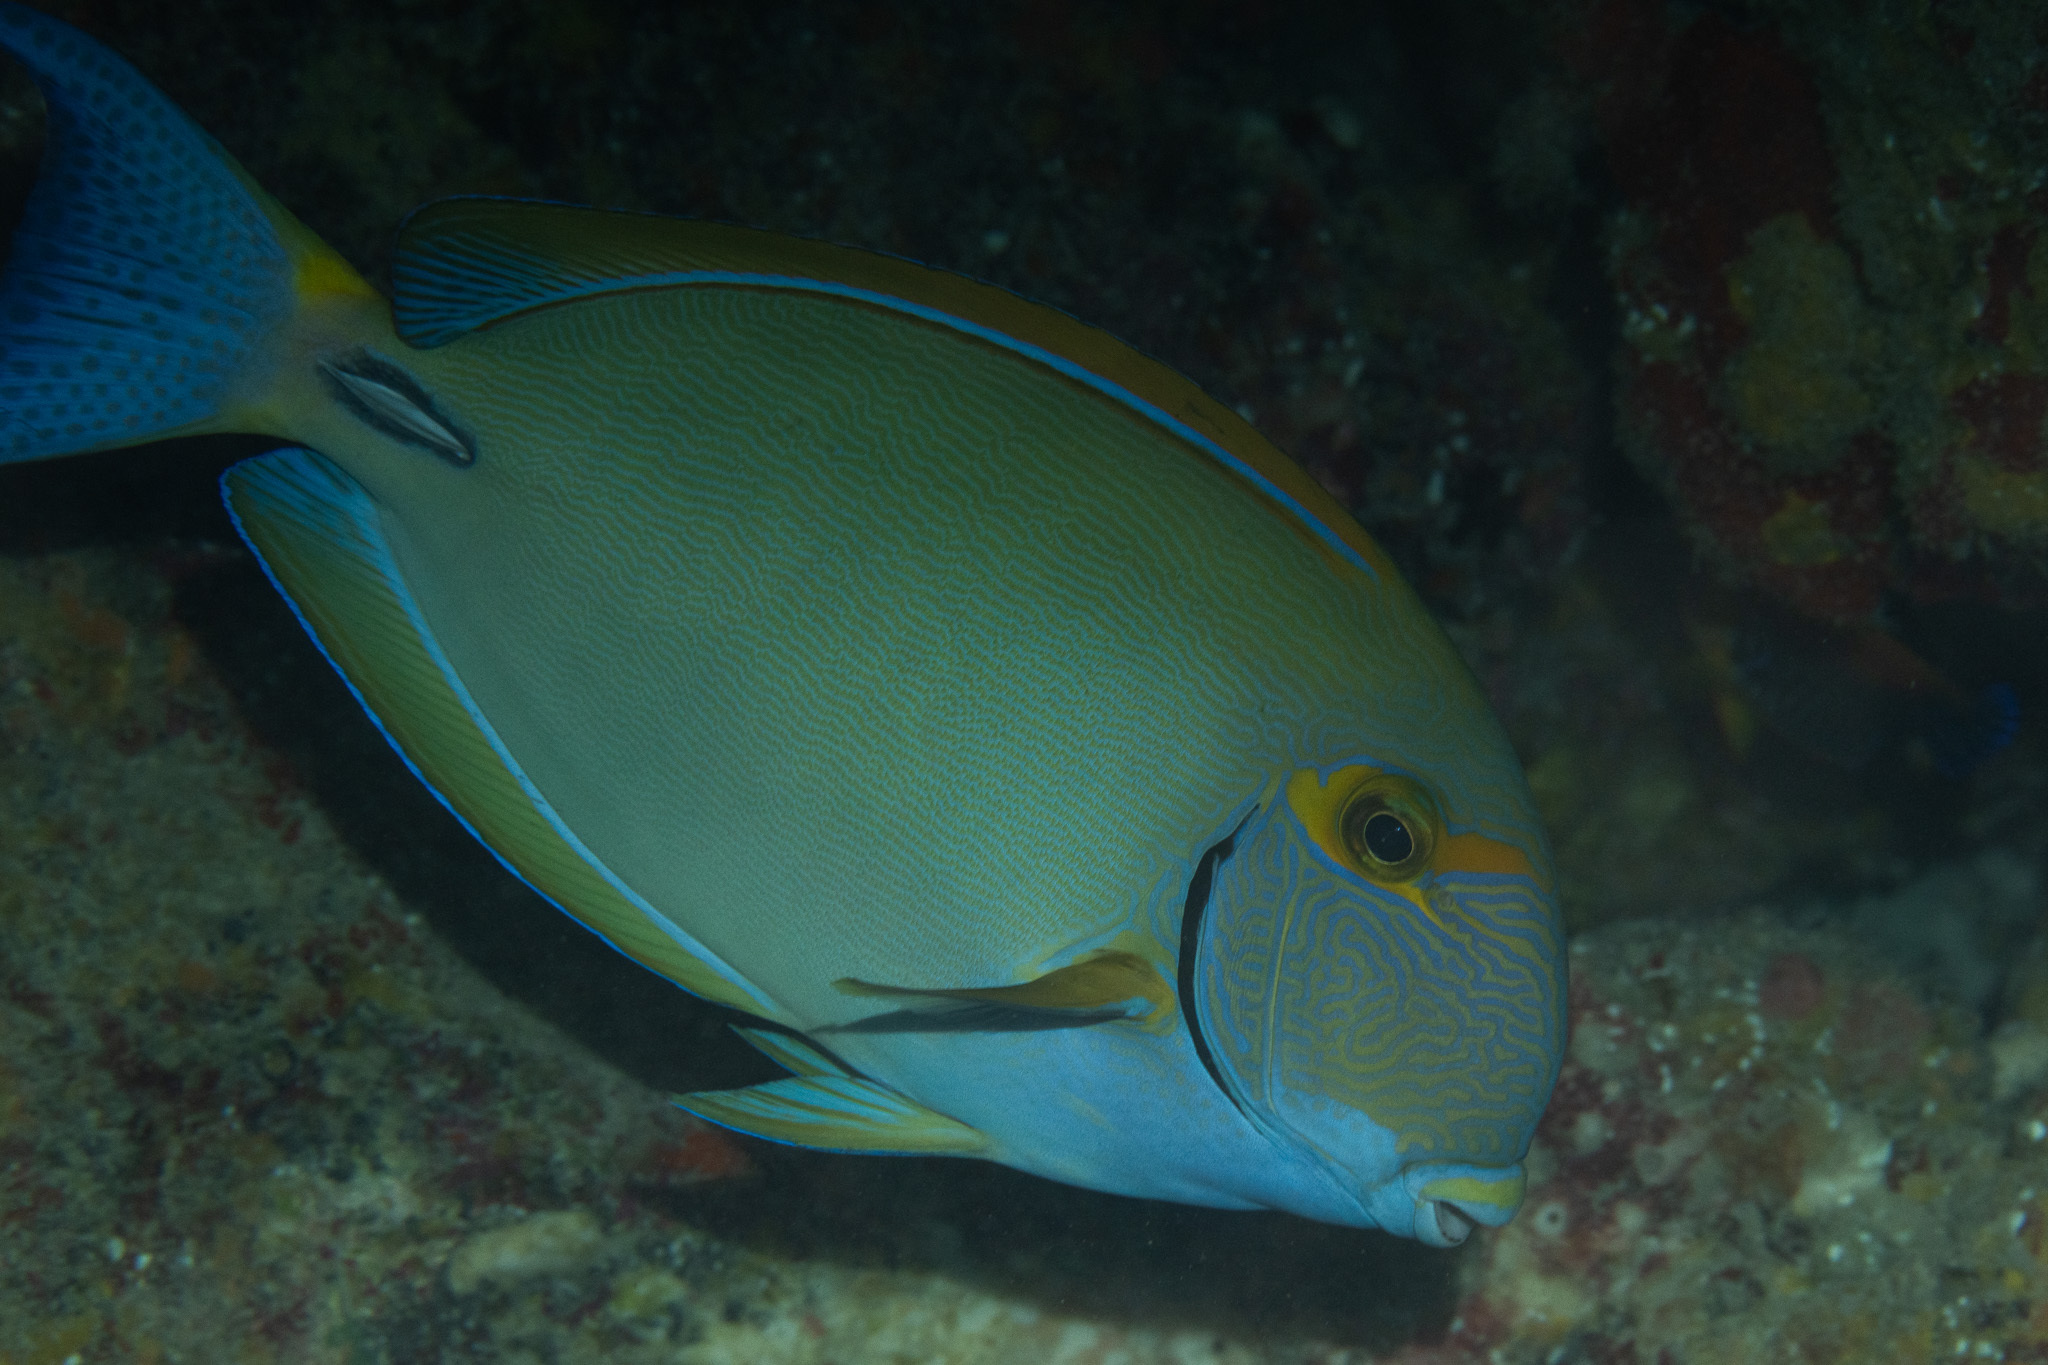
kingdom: Animalia
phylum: Chordata
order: Perciformes
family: Acanthuridae
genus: Acanthurus
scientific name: Acanthurus dussumieri
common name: Dussumier's surgeonfish
